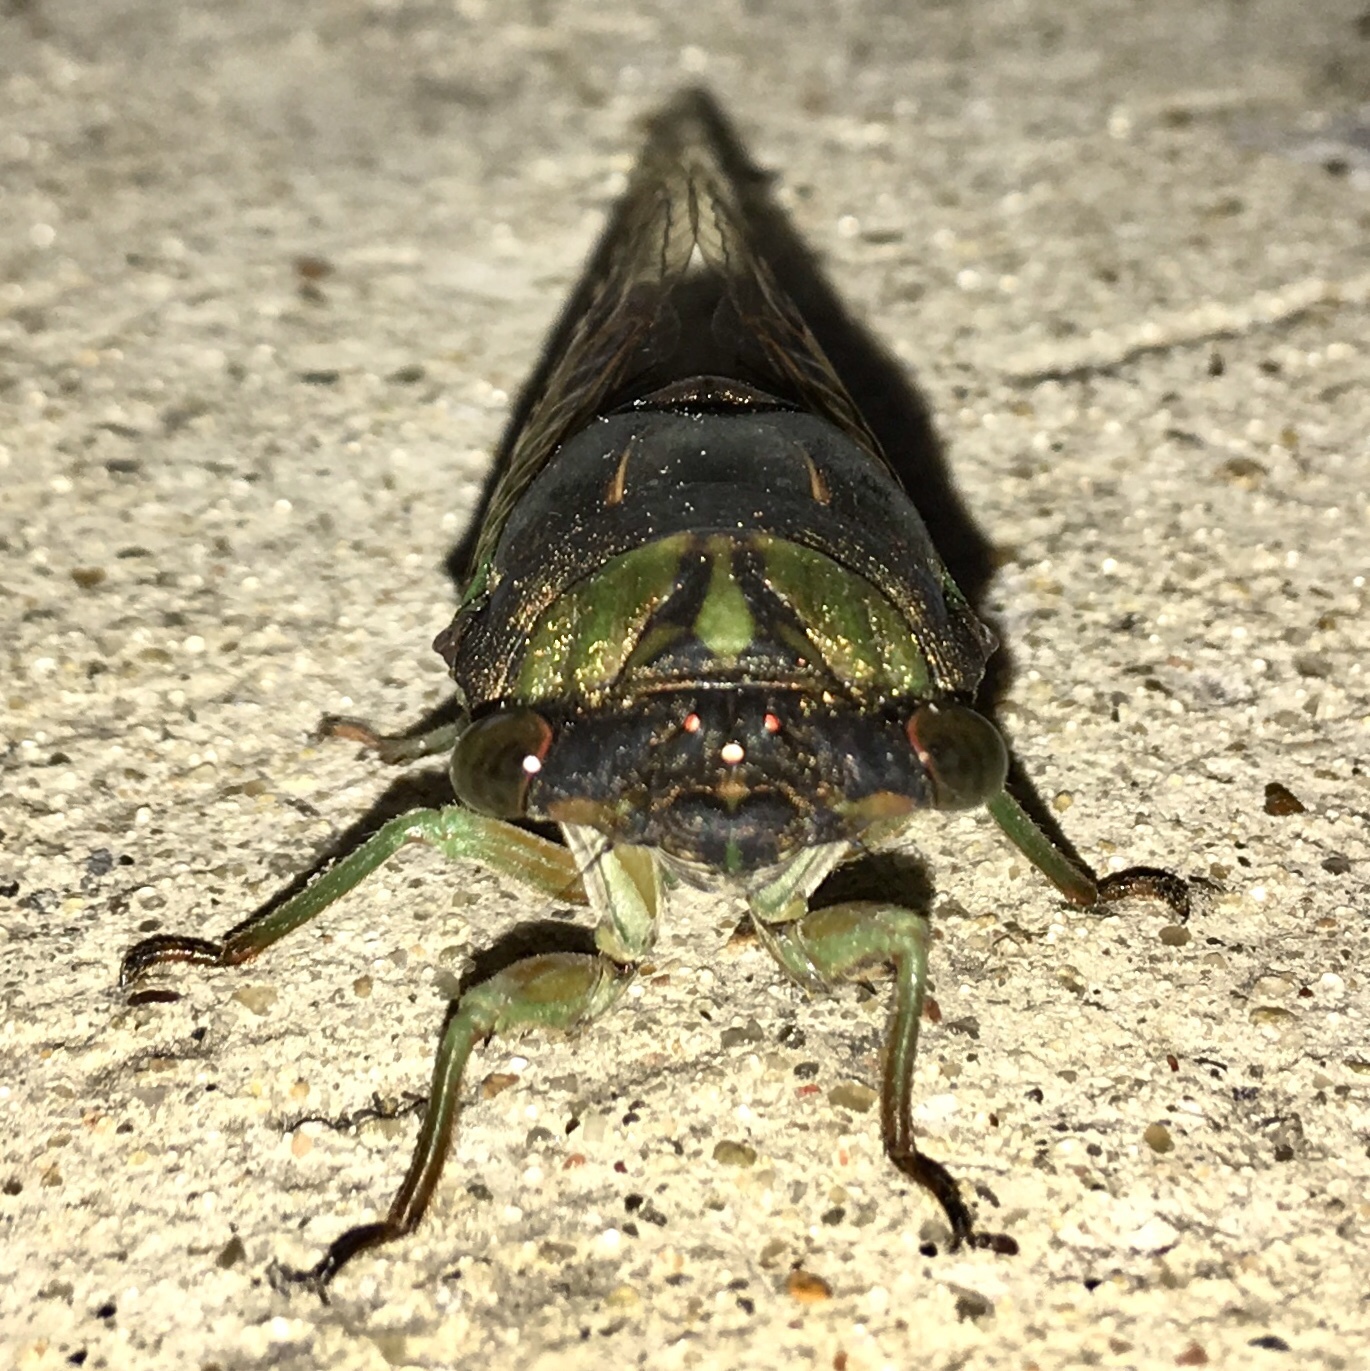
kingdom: Animalia
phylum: Arthropoda
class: Insecta
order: Hemiptera
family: Cicadidae
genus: Neotibicen
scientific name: Neotibicen tibicen
